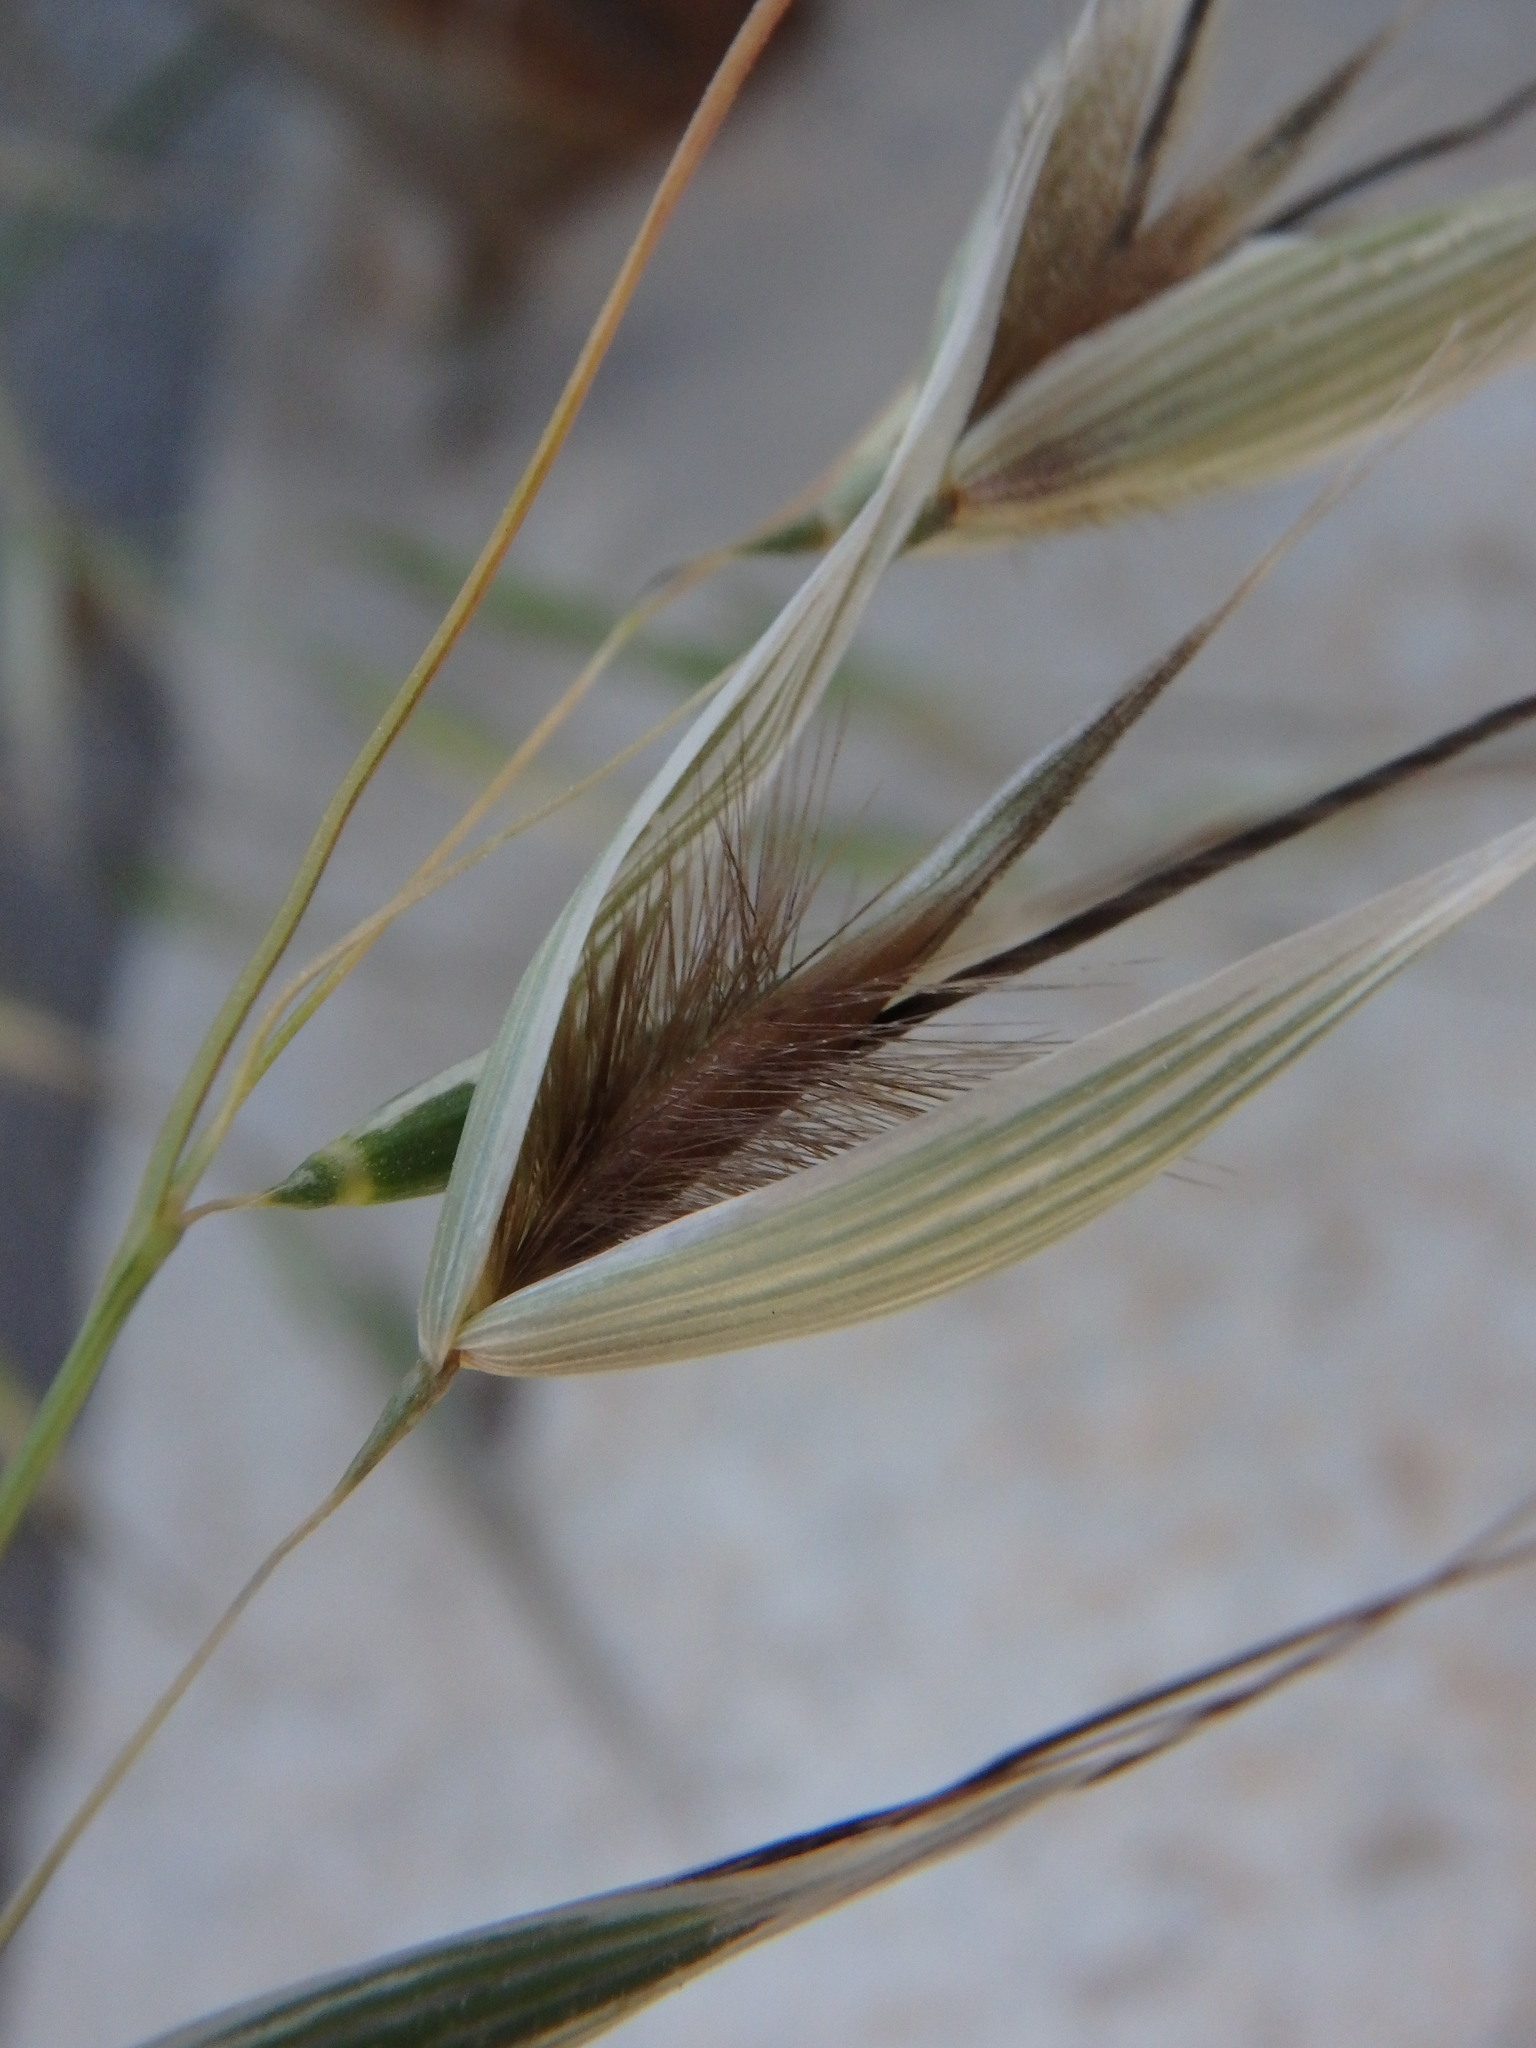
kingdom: Plantae
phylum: Tracheophyta
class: Liliopsida
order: Poales
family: Poaceae
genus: Avena
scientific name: Avena barbata
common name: Slender oat
